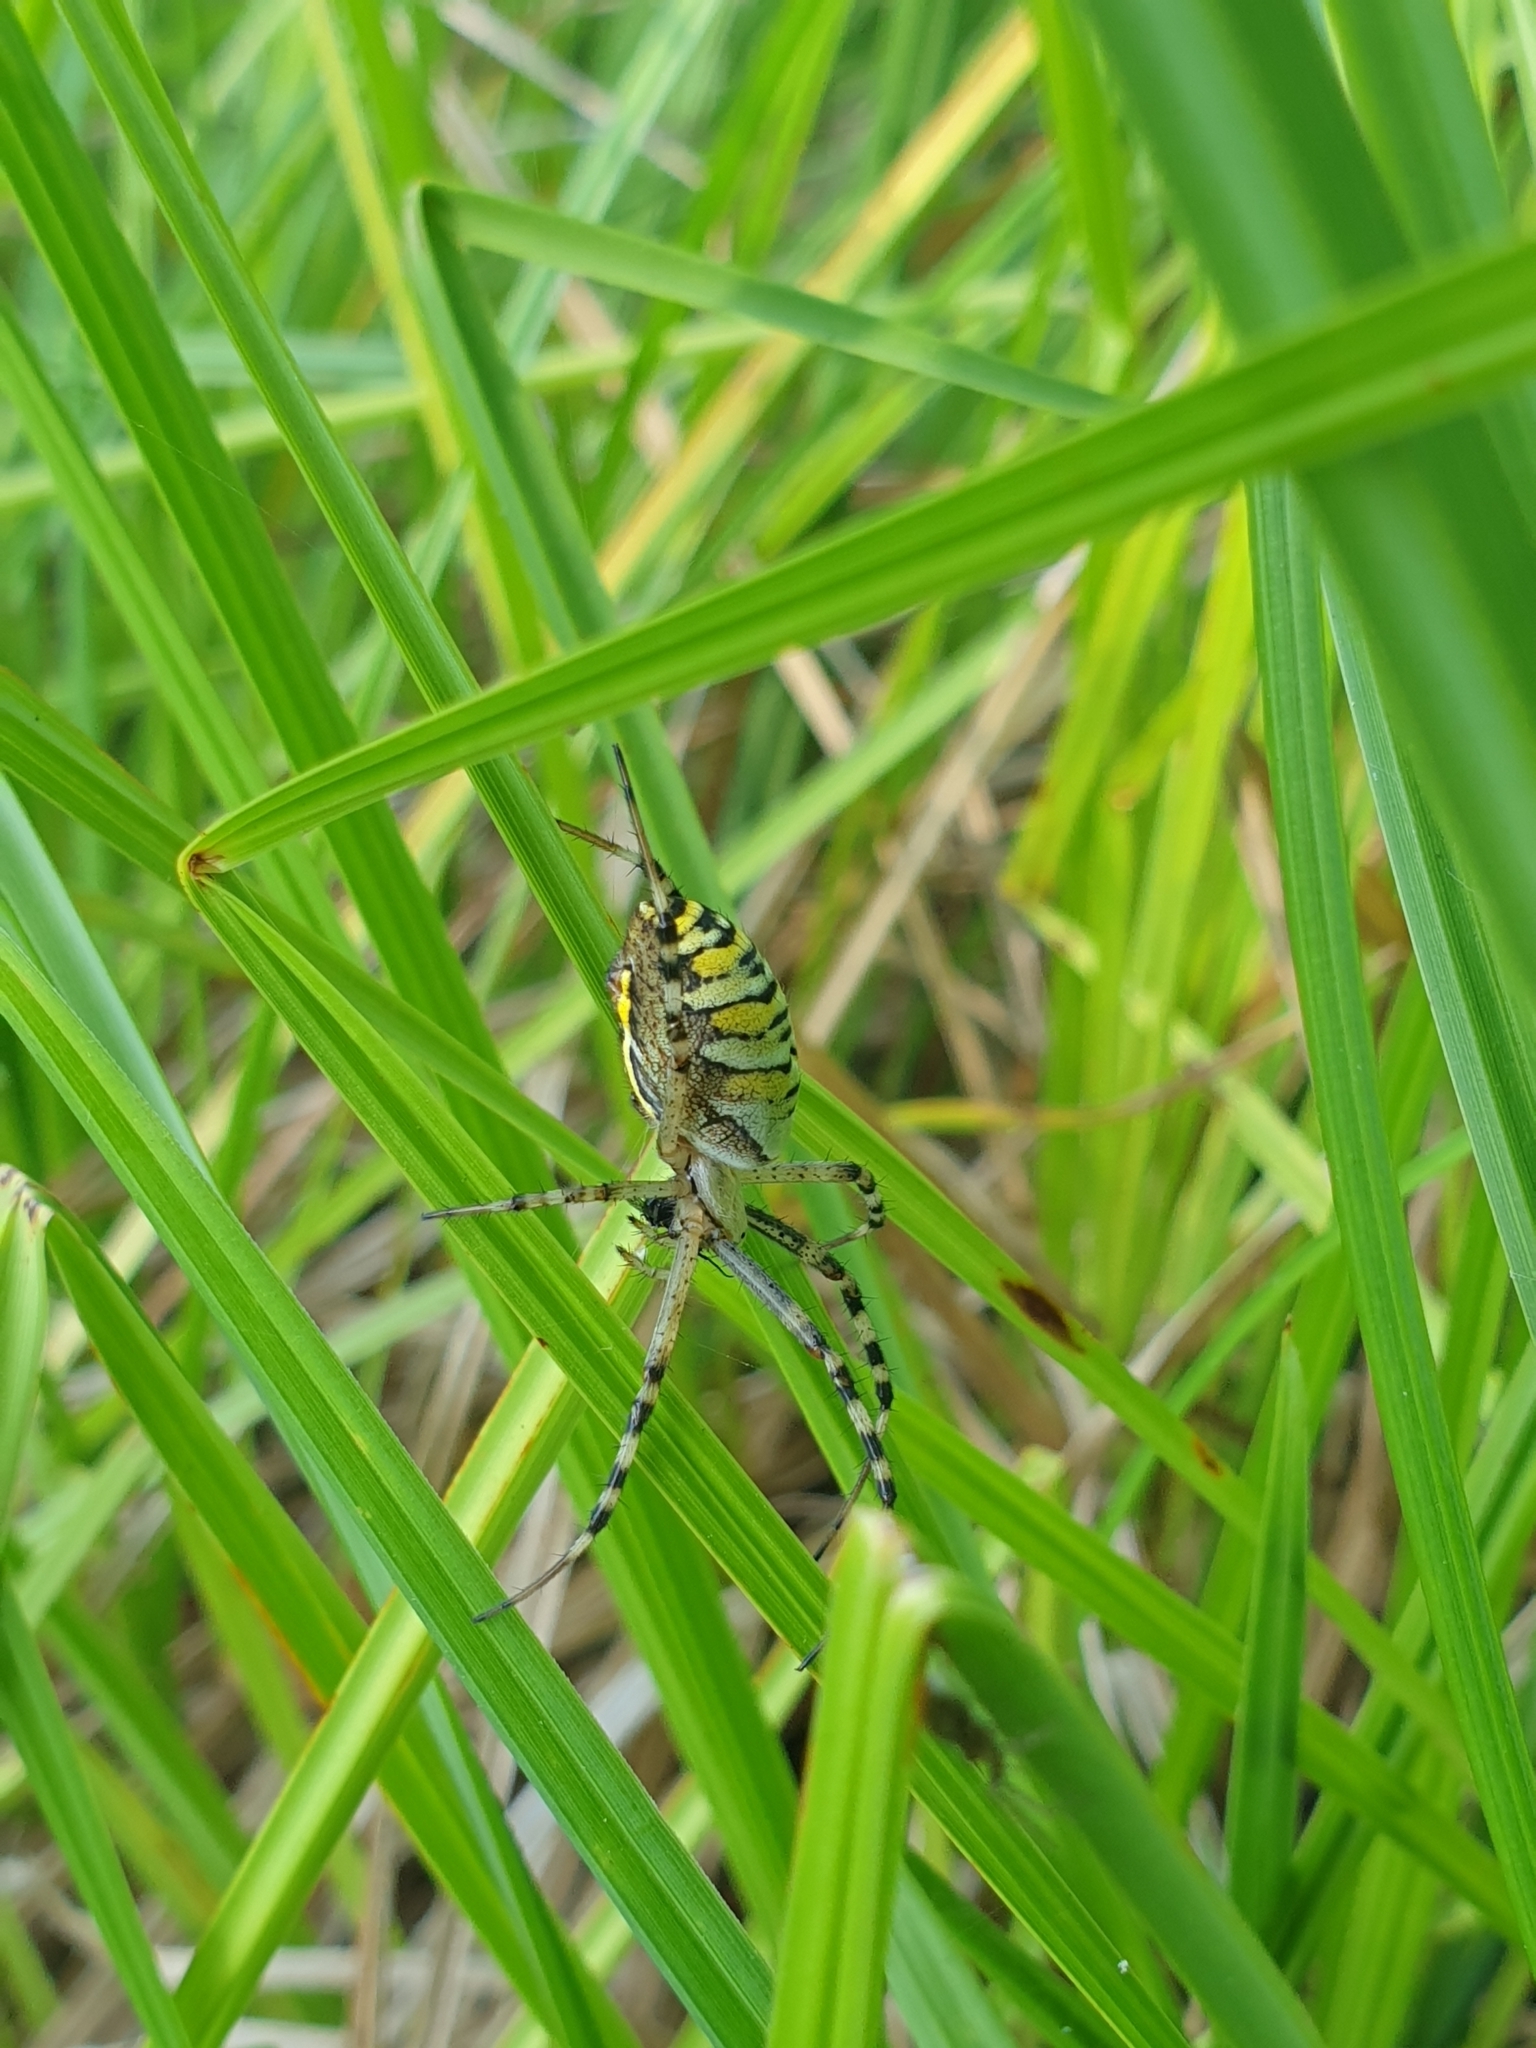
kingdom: Animalia
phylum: Arthropoda
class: Arachnida
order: Araneae
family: Araneidae
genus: Argiope
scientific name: Argiope bruennichi
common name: Wasp spider
